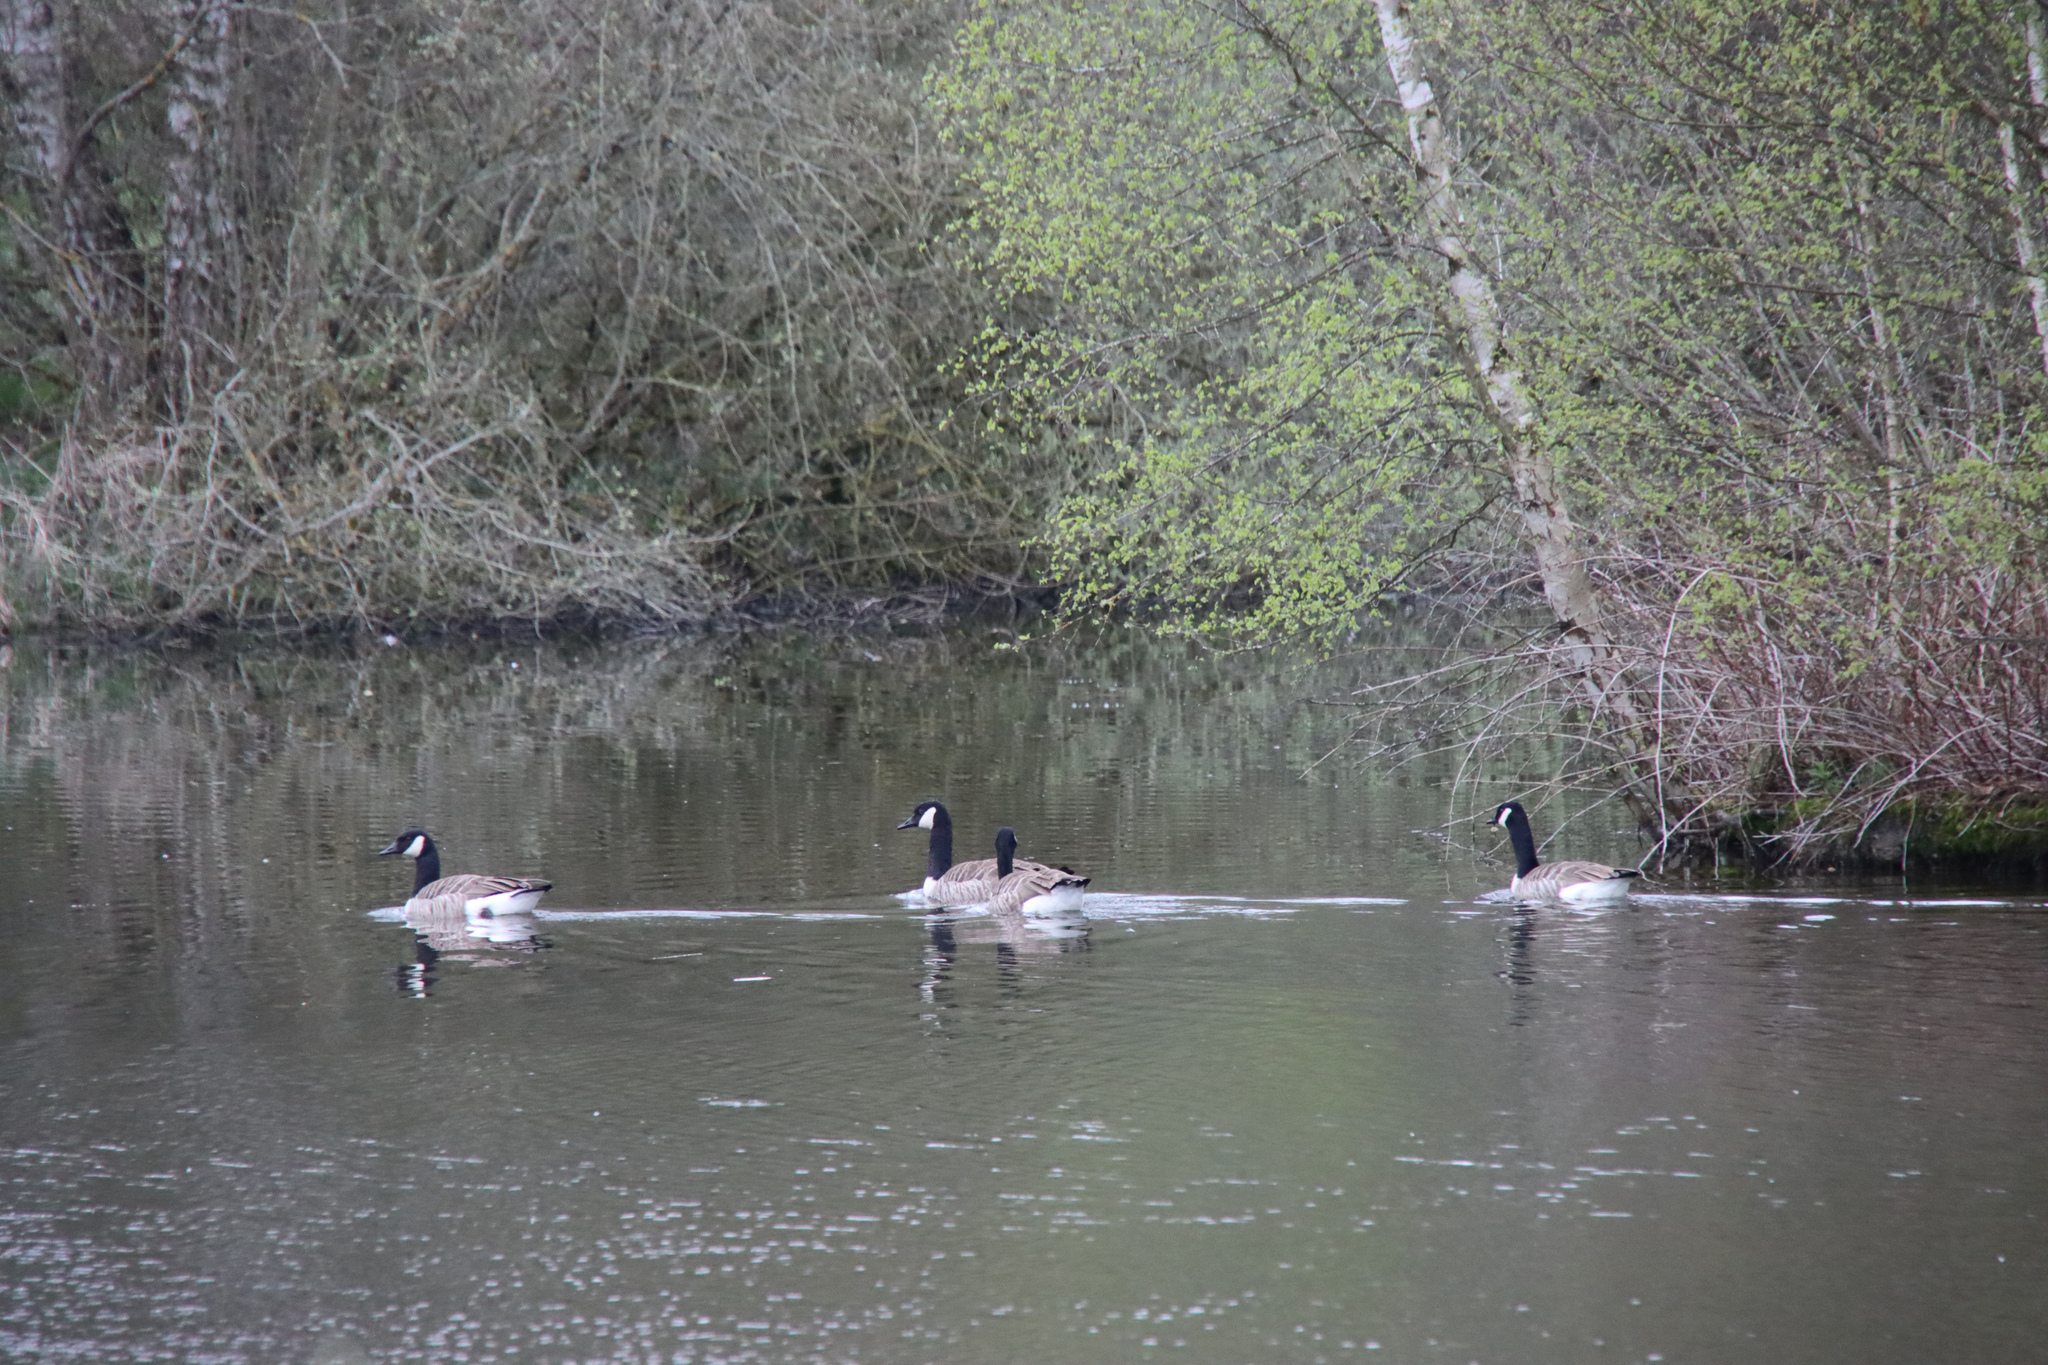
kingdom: Animalia
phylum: Chordata
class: Aves
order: Anseriformes
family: Anatidae
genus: Branta
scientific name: Branta canadensis
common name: Canada goose
